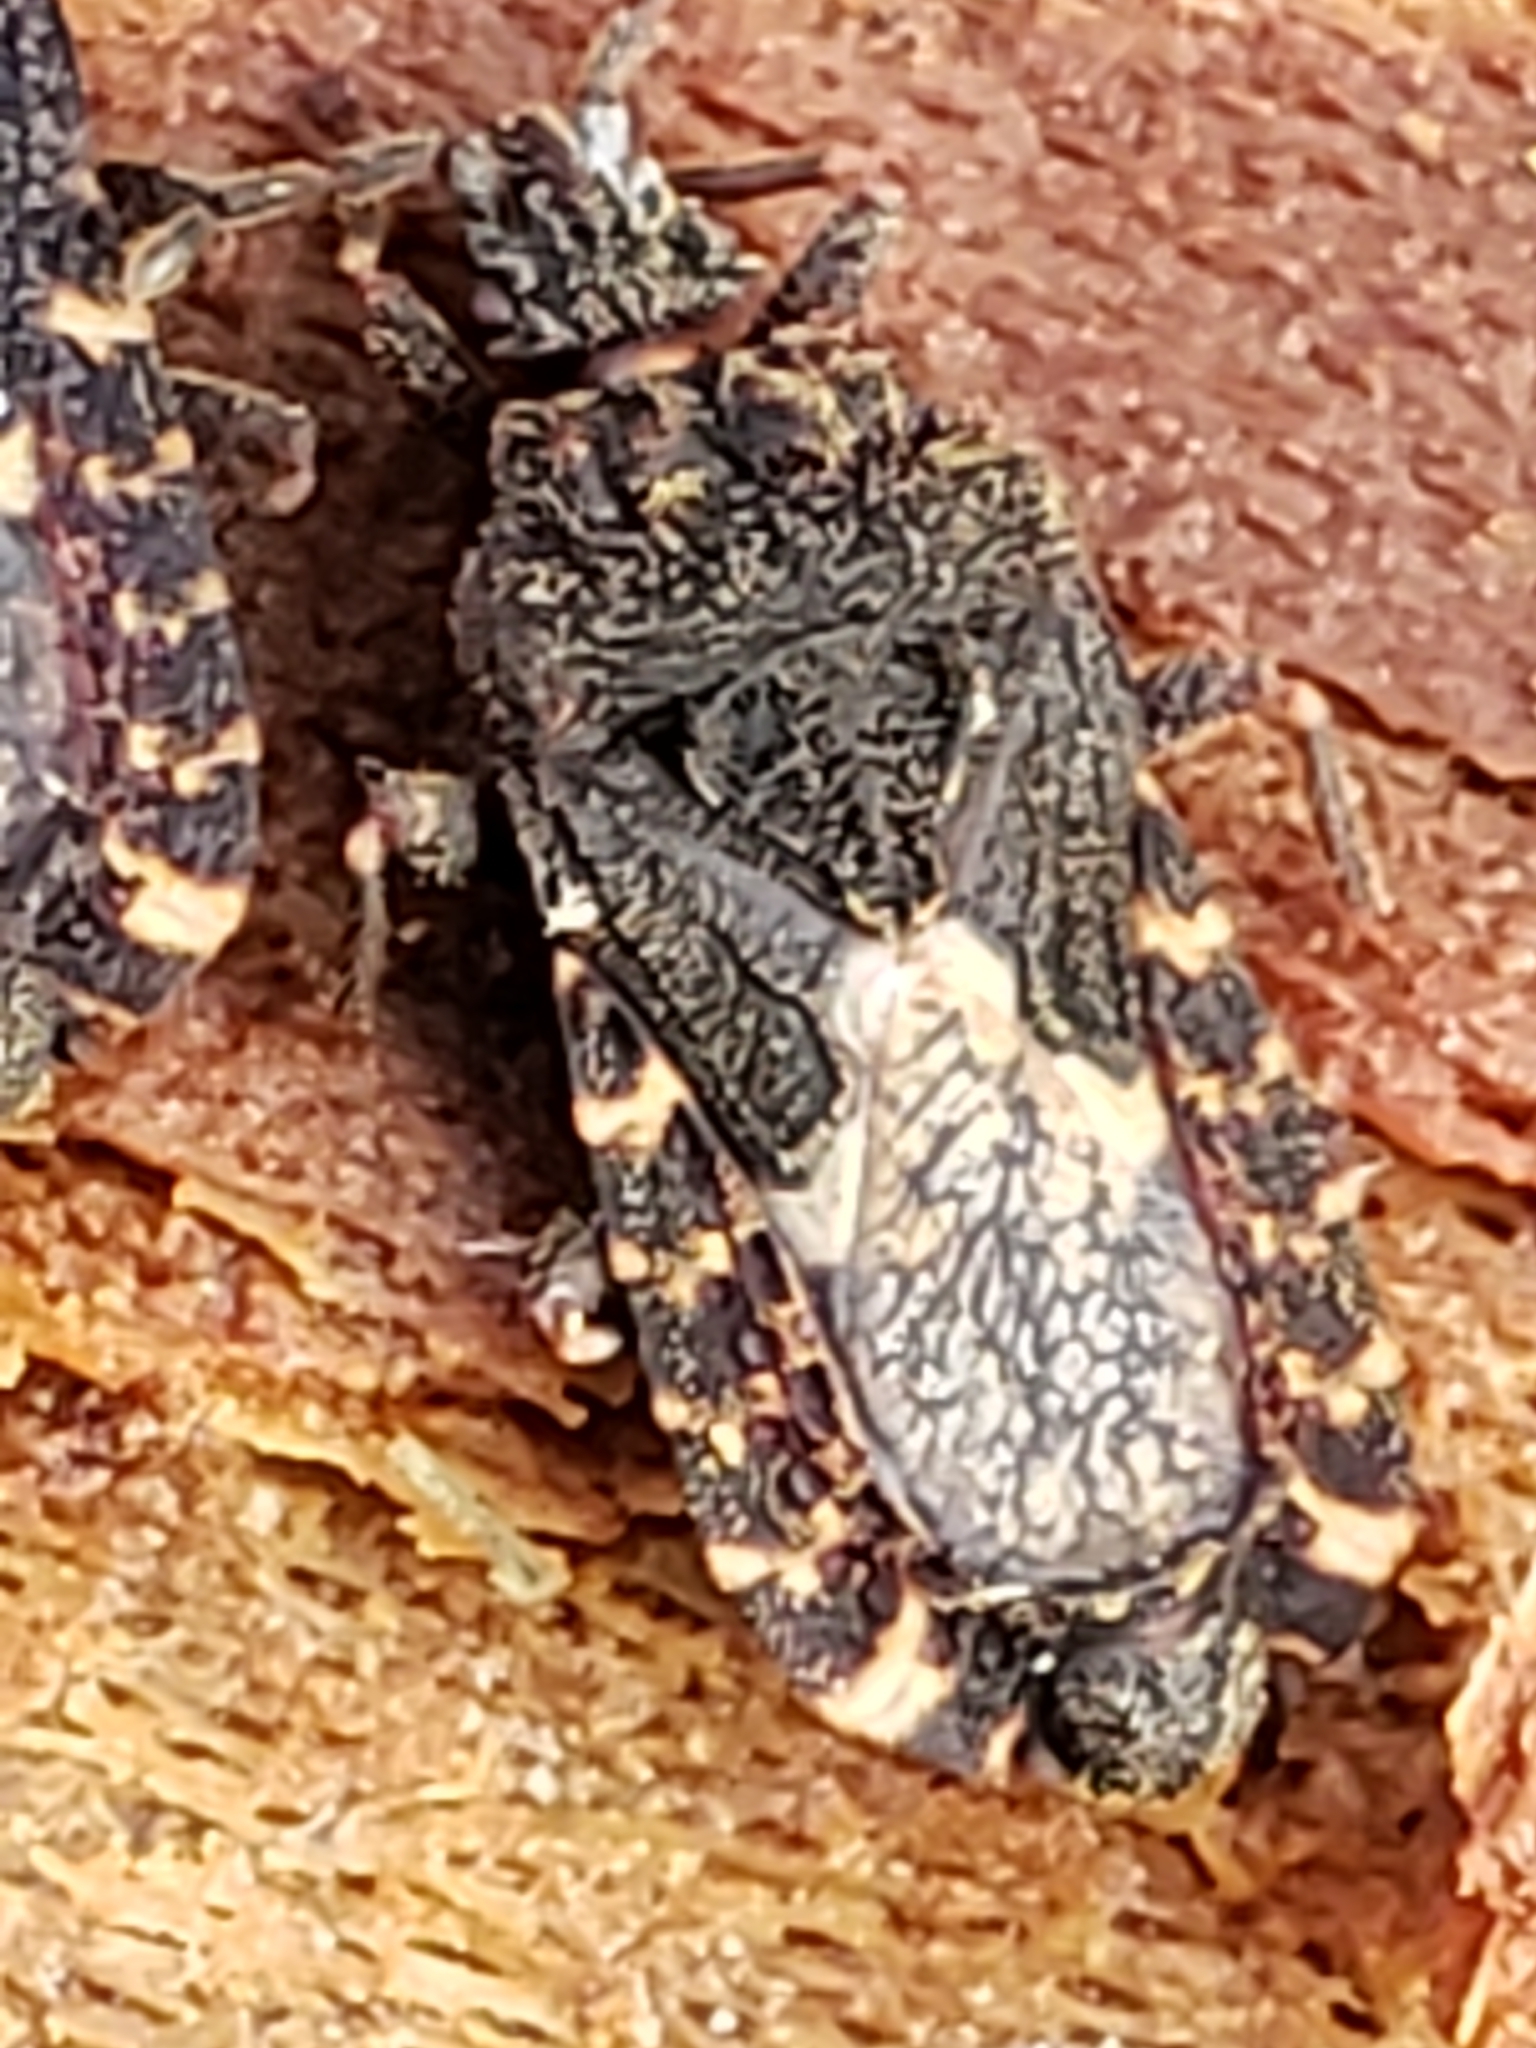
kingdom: Animalia
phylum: Arthropoda
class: Insecta
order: Hemiptera
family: Aradidae
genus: Mezira
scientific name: Mezira
